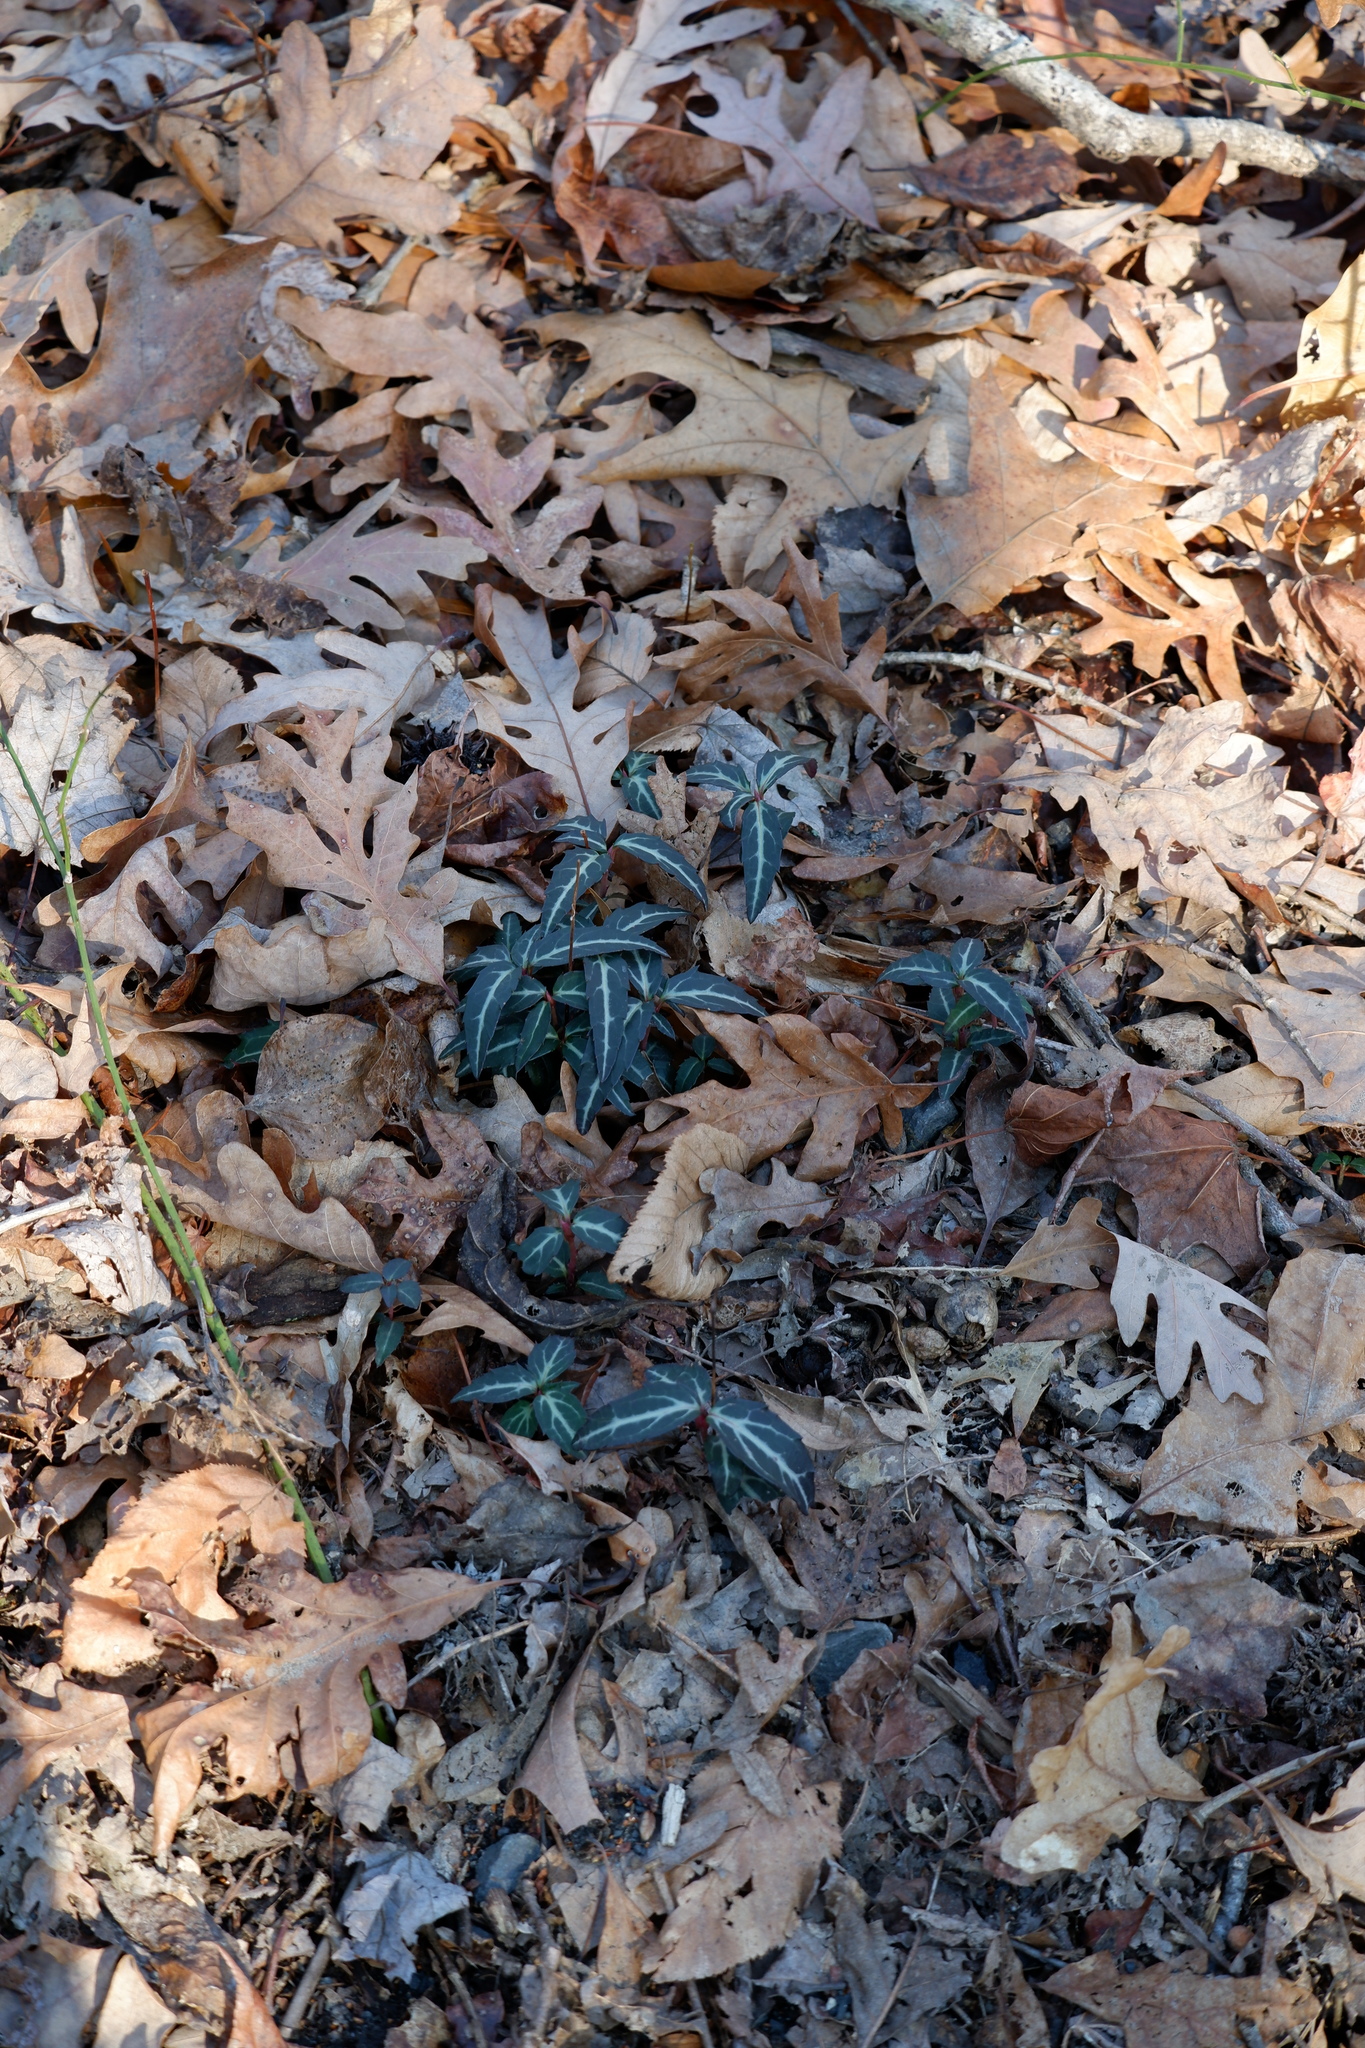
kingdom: Plantae
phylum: Tracheophyta
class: Magnoliopsida
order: Ericales
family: Ericaceae
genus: Chimaphila
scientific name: Chimaphila maculata
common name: Spotted pipsissewa
